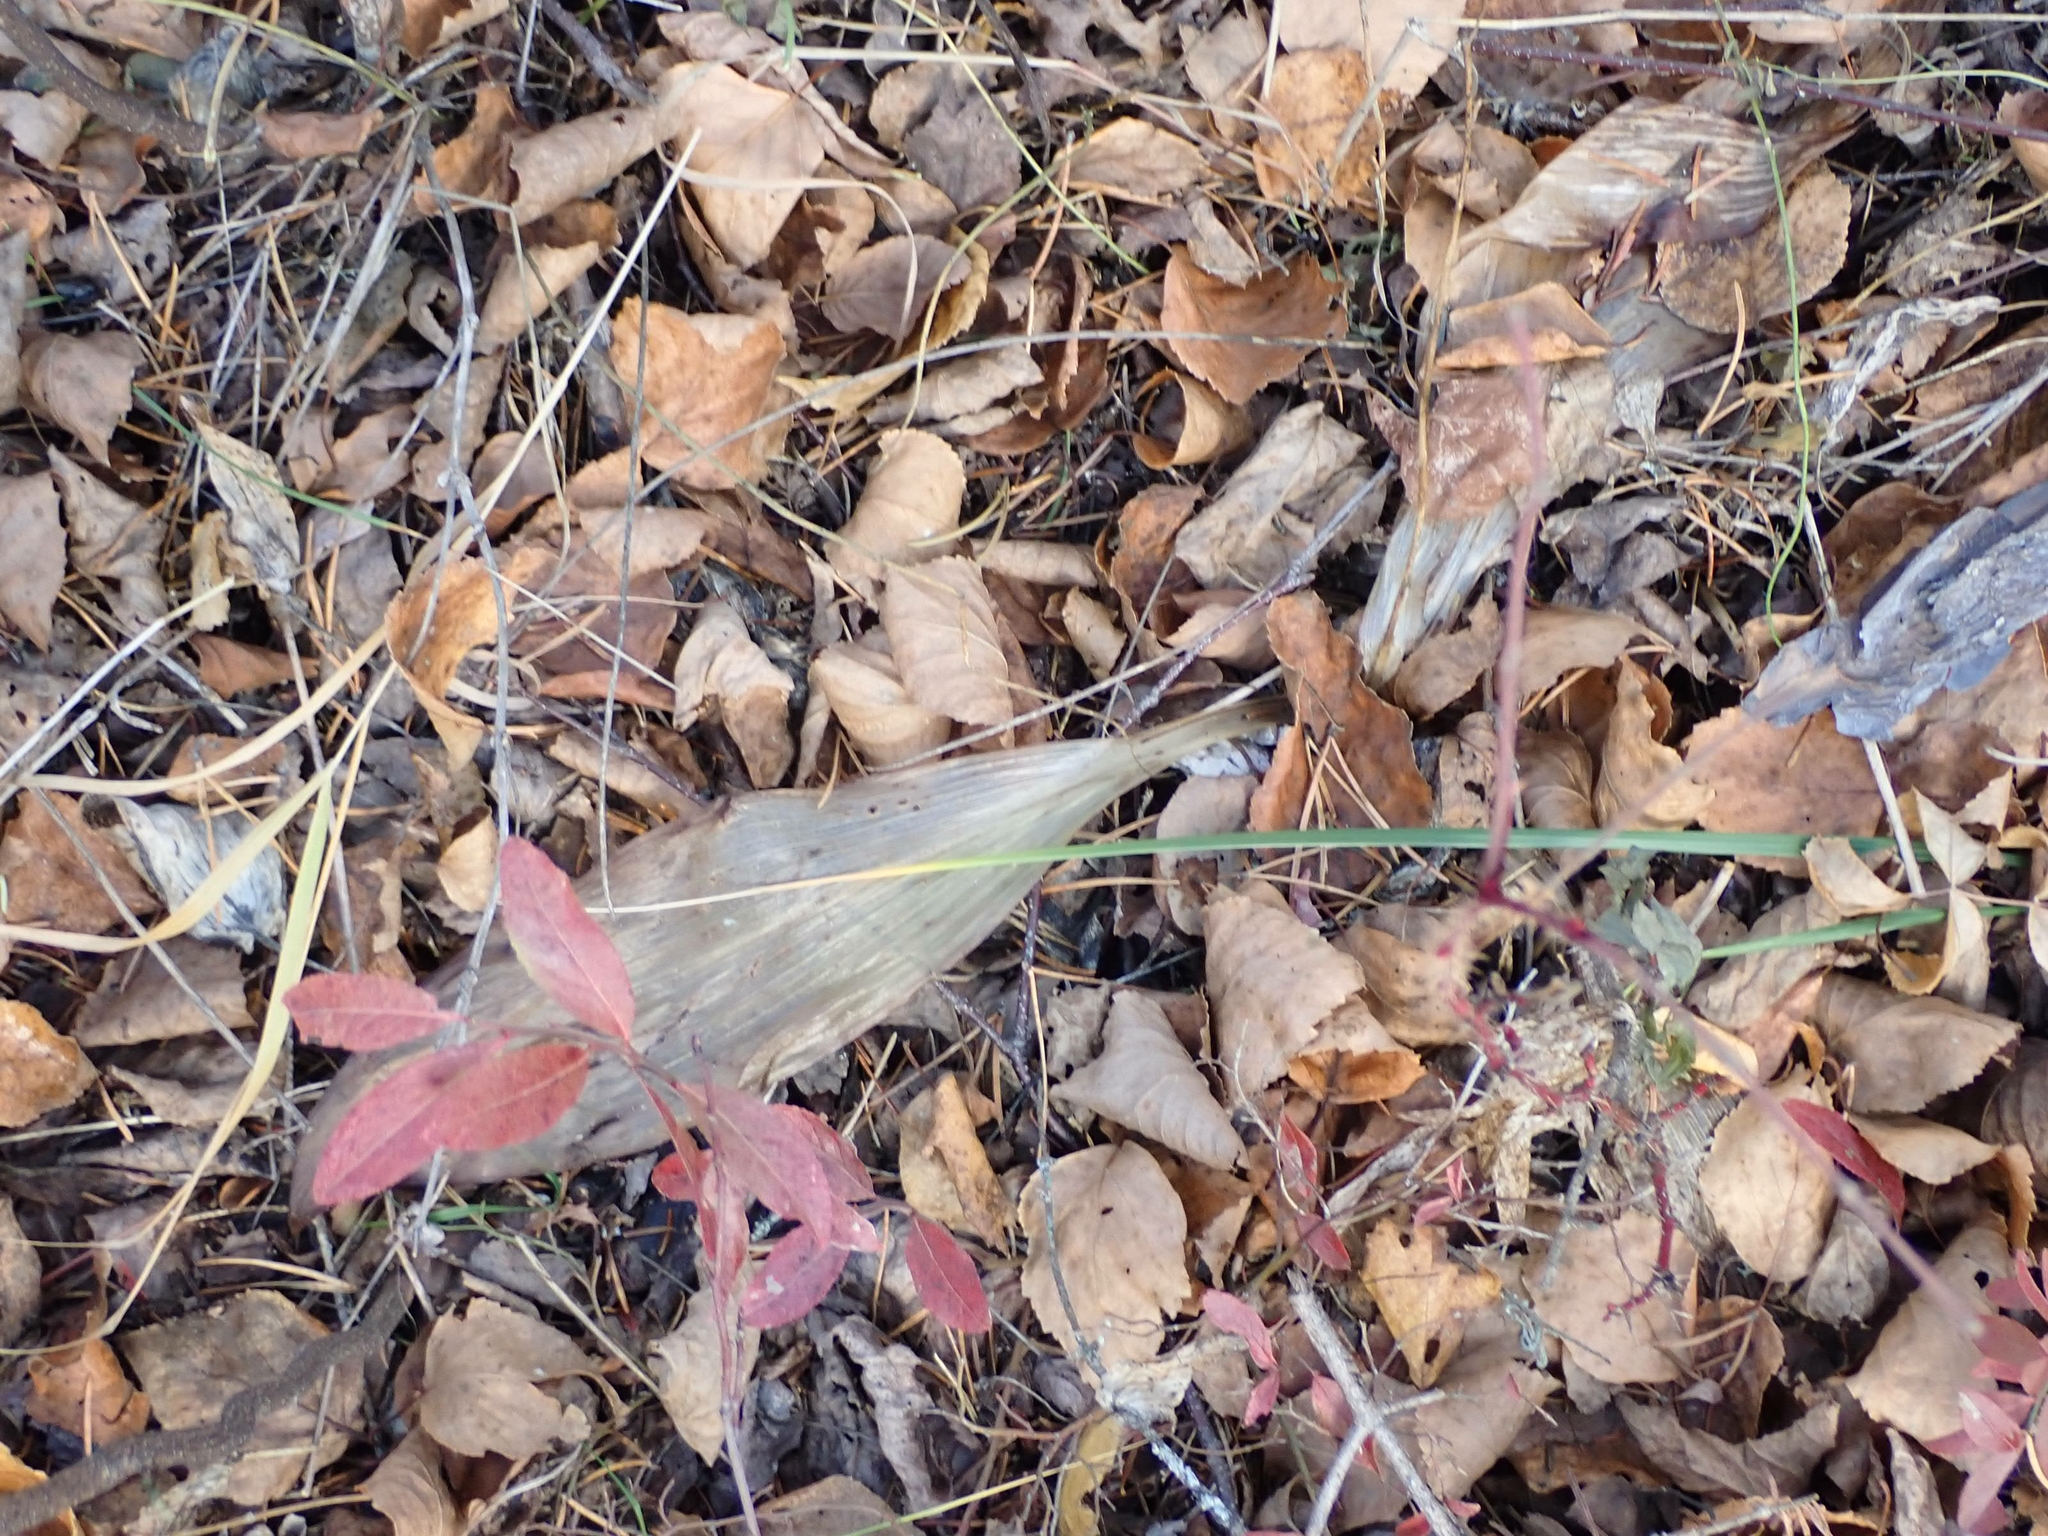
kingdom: Plantae
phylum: Tracheophyta
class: Liliopsida
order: Liliales
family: Liliaceae
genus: Clintonia
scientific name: Clintonia borealis
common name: Yellow clintonia
